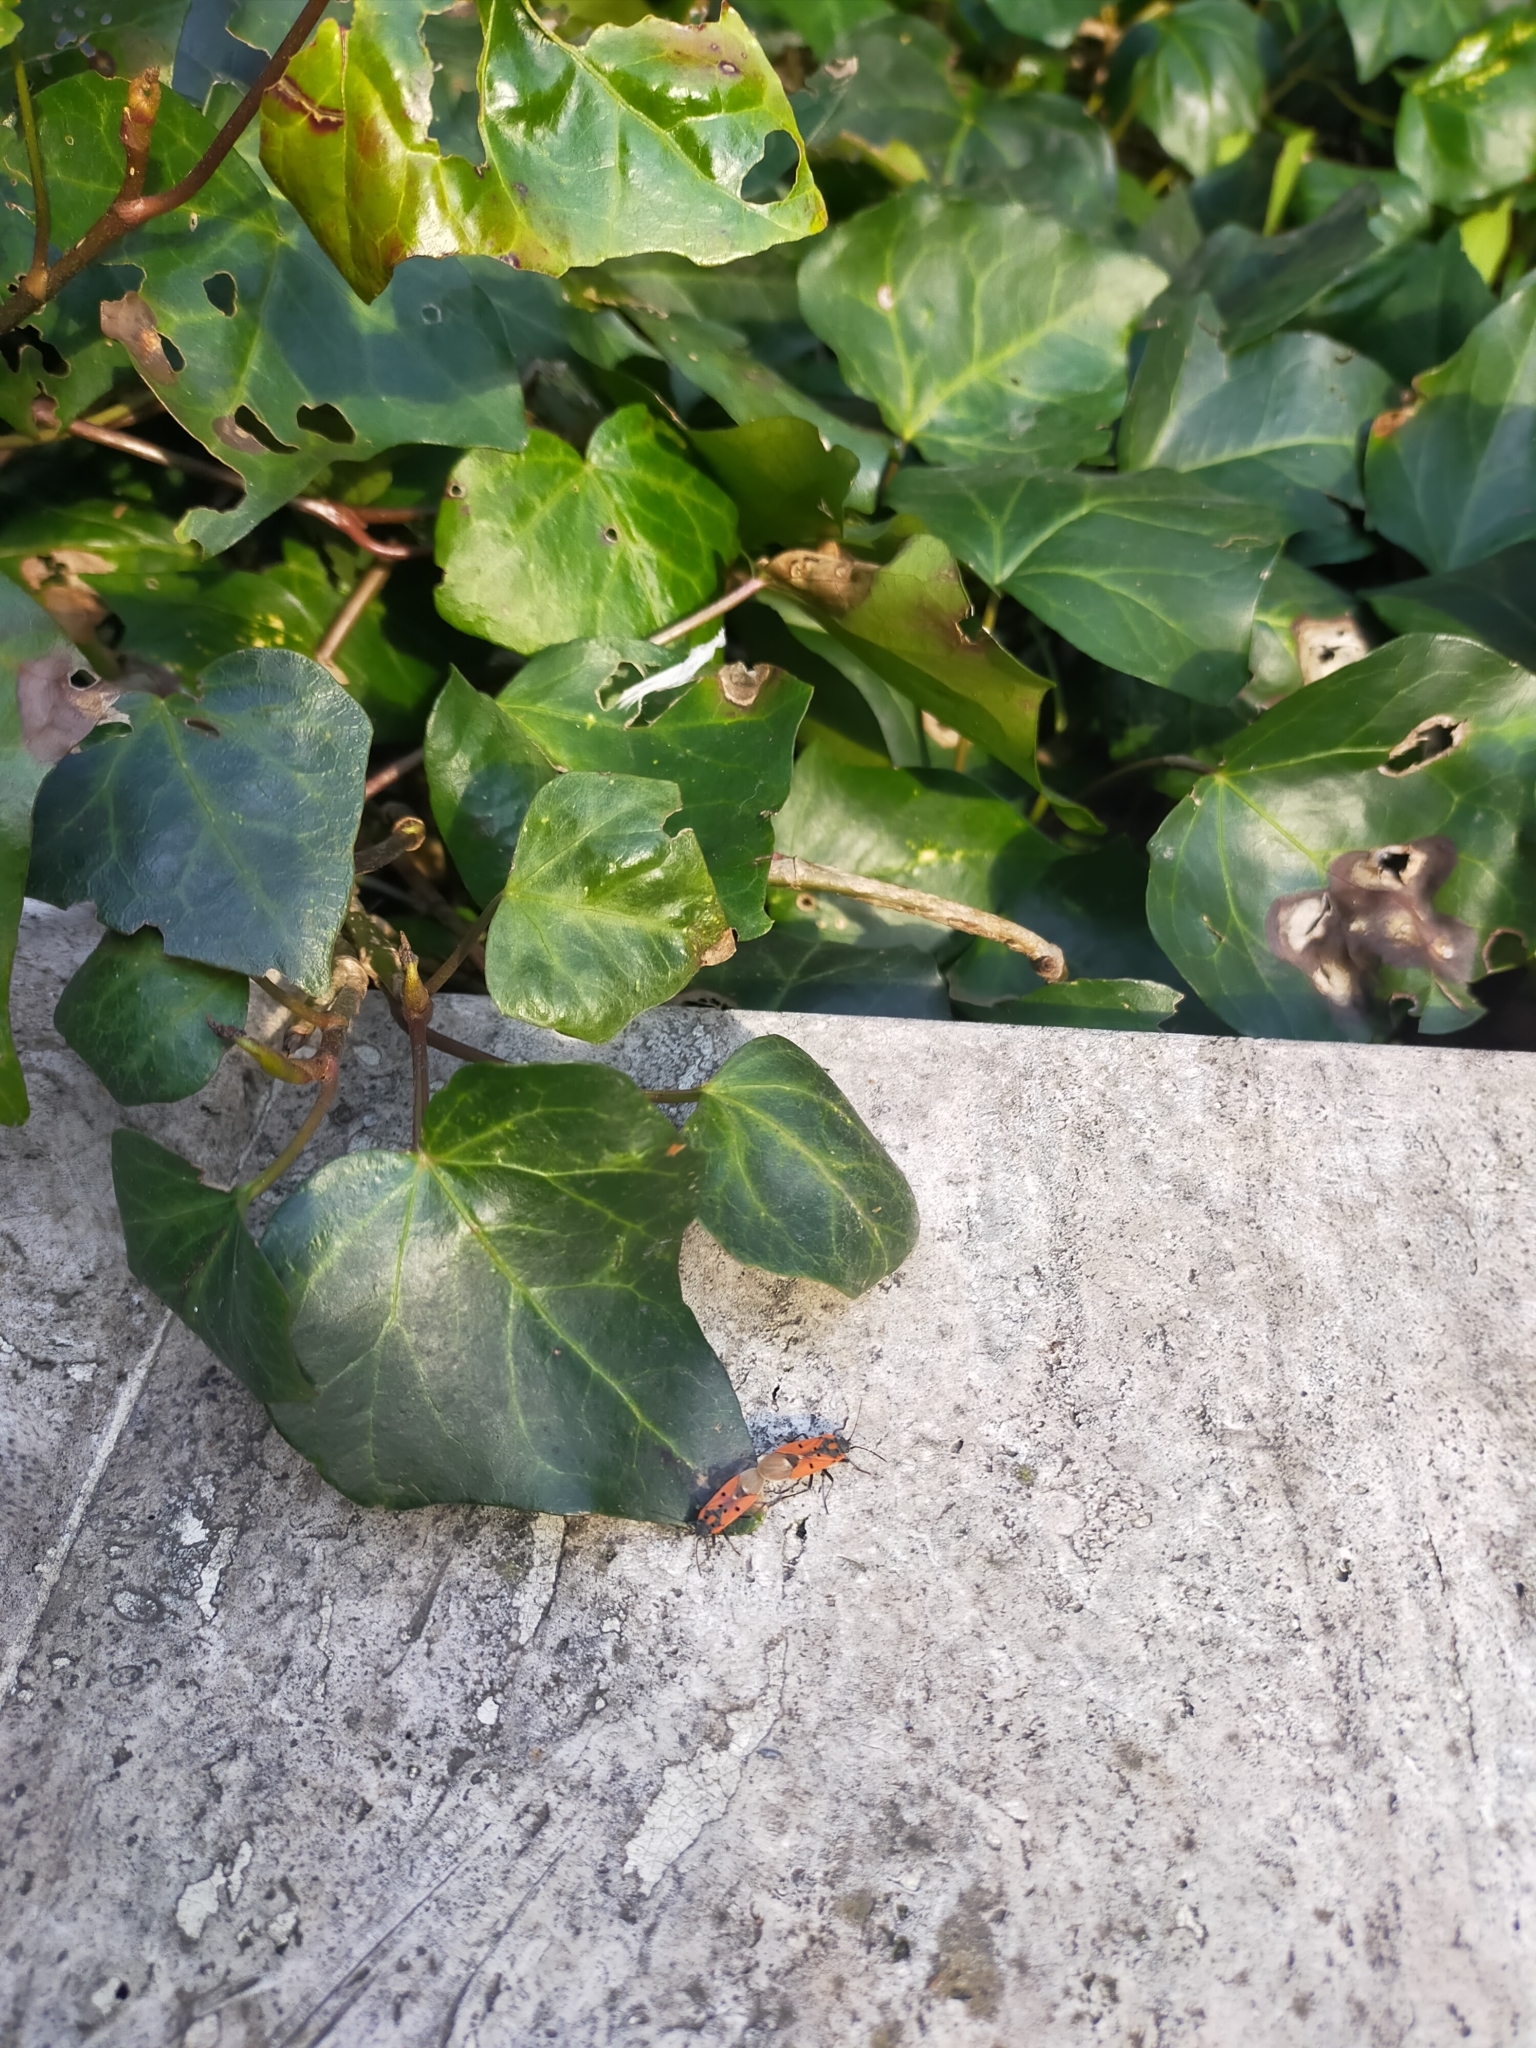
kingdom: Animalia
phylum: Arthropoda
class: Insecta
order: Hemiptera
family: Lygaeidae
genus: Lygaeus
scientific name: Lygaeus creticus
